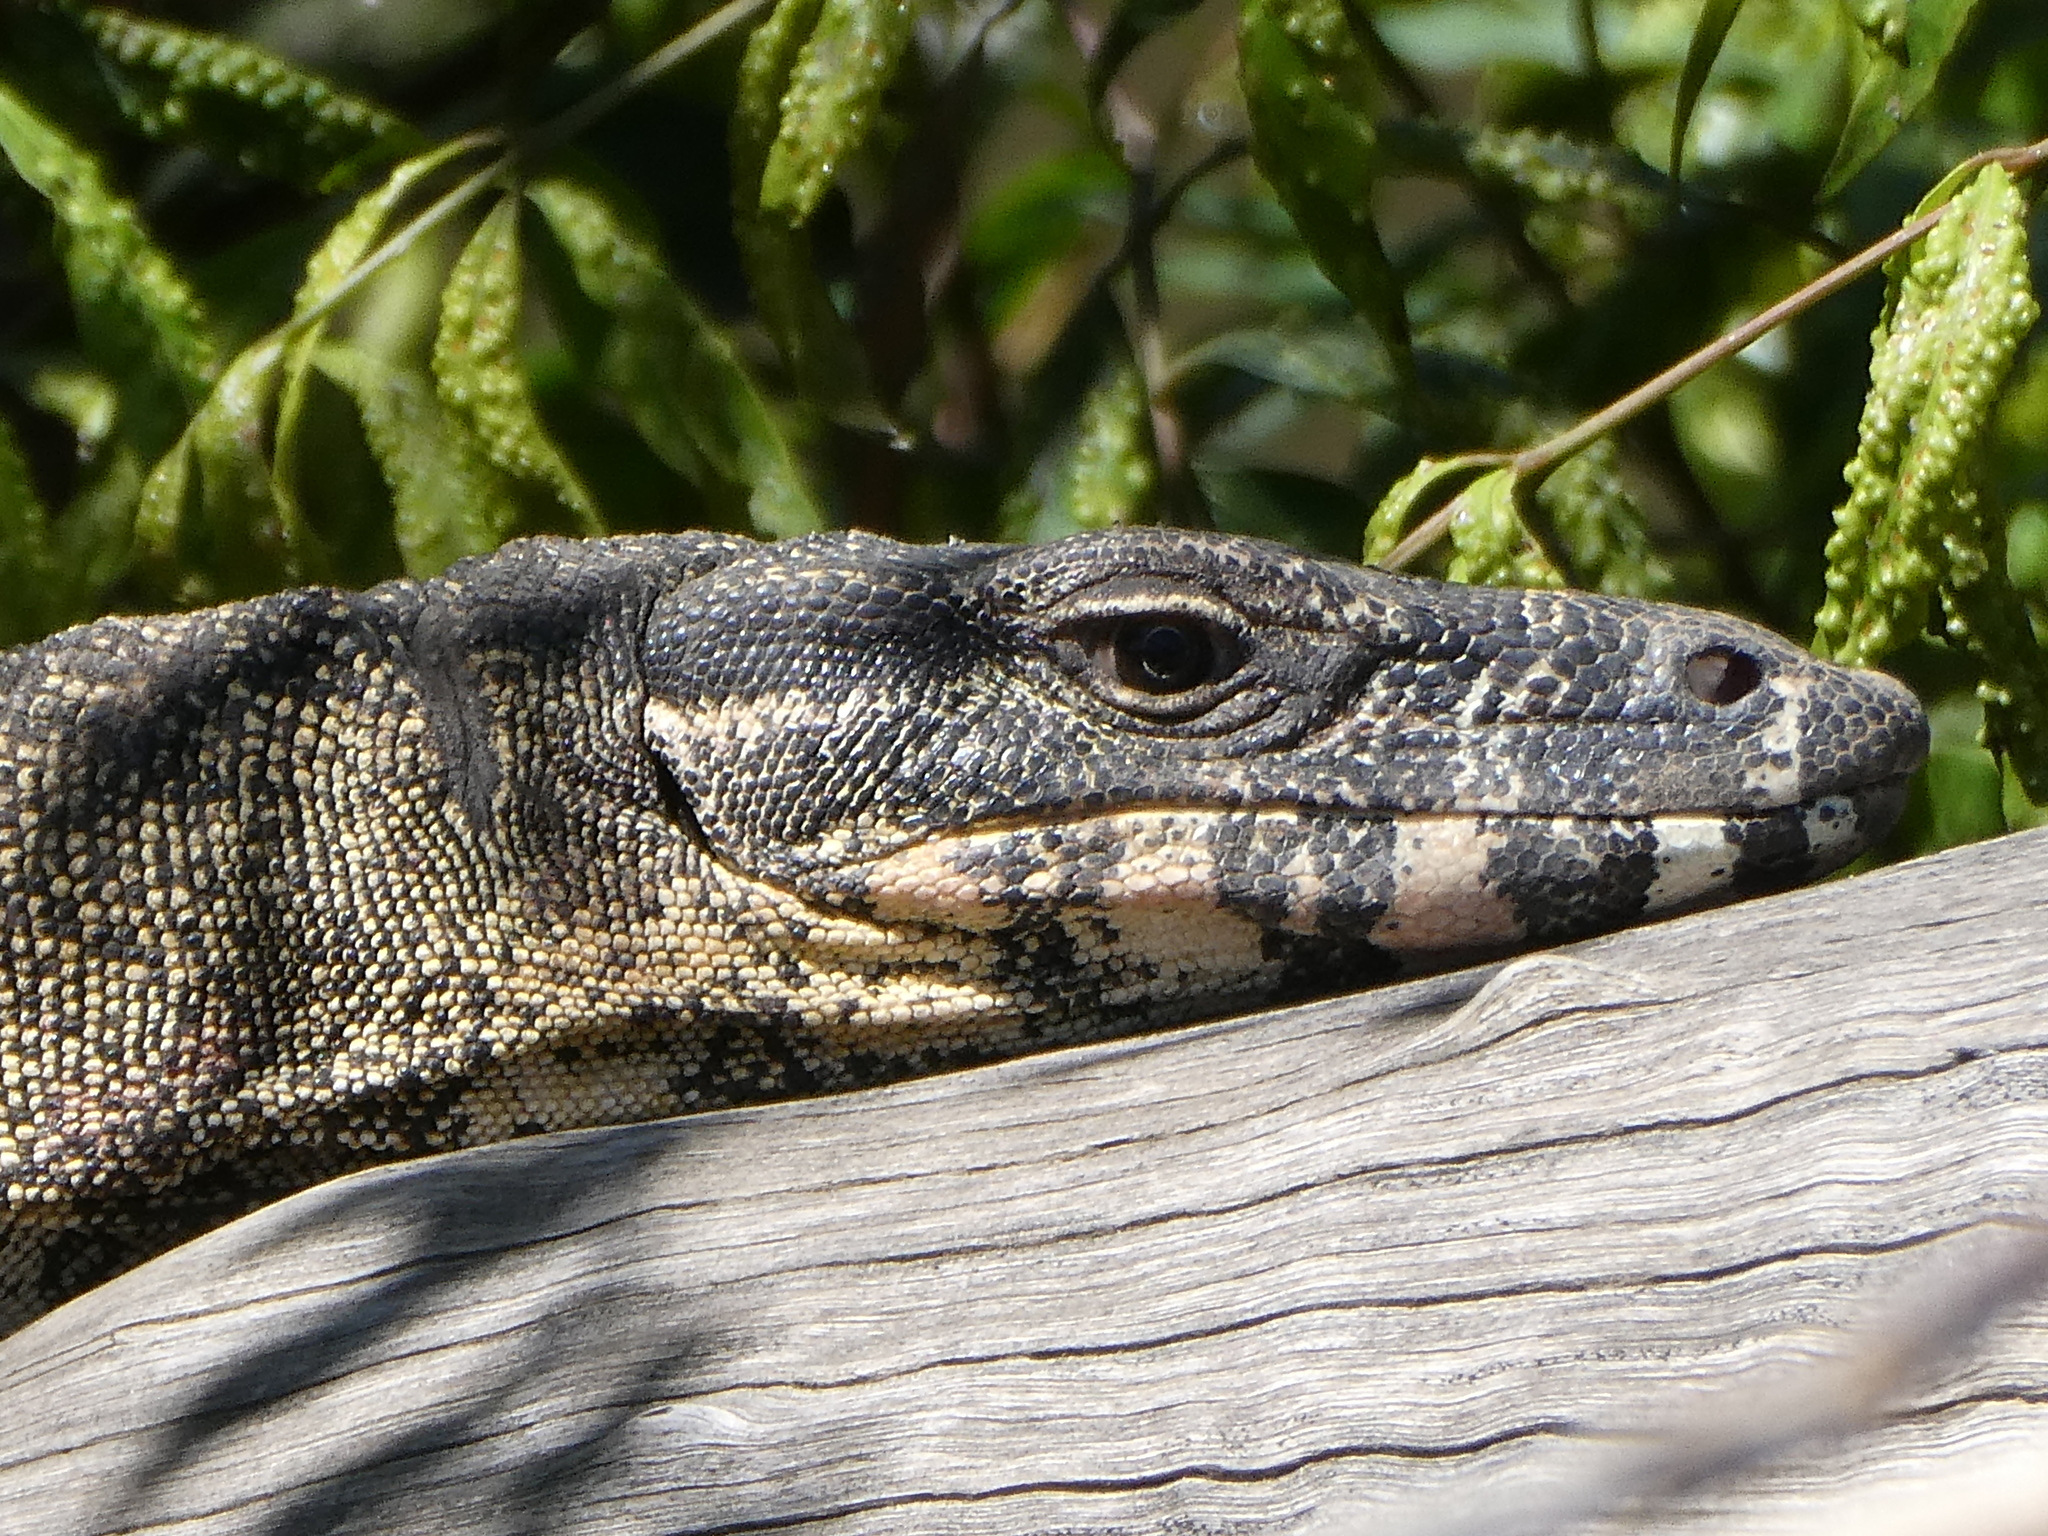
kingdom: Animalia
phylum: Chordata
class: Squamata
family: Varanidae
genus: Varanus
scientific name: Varanus varius
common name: Lace monitor
